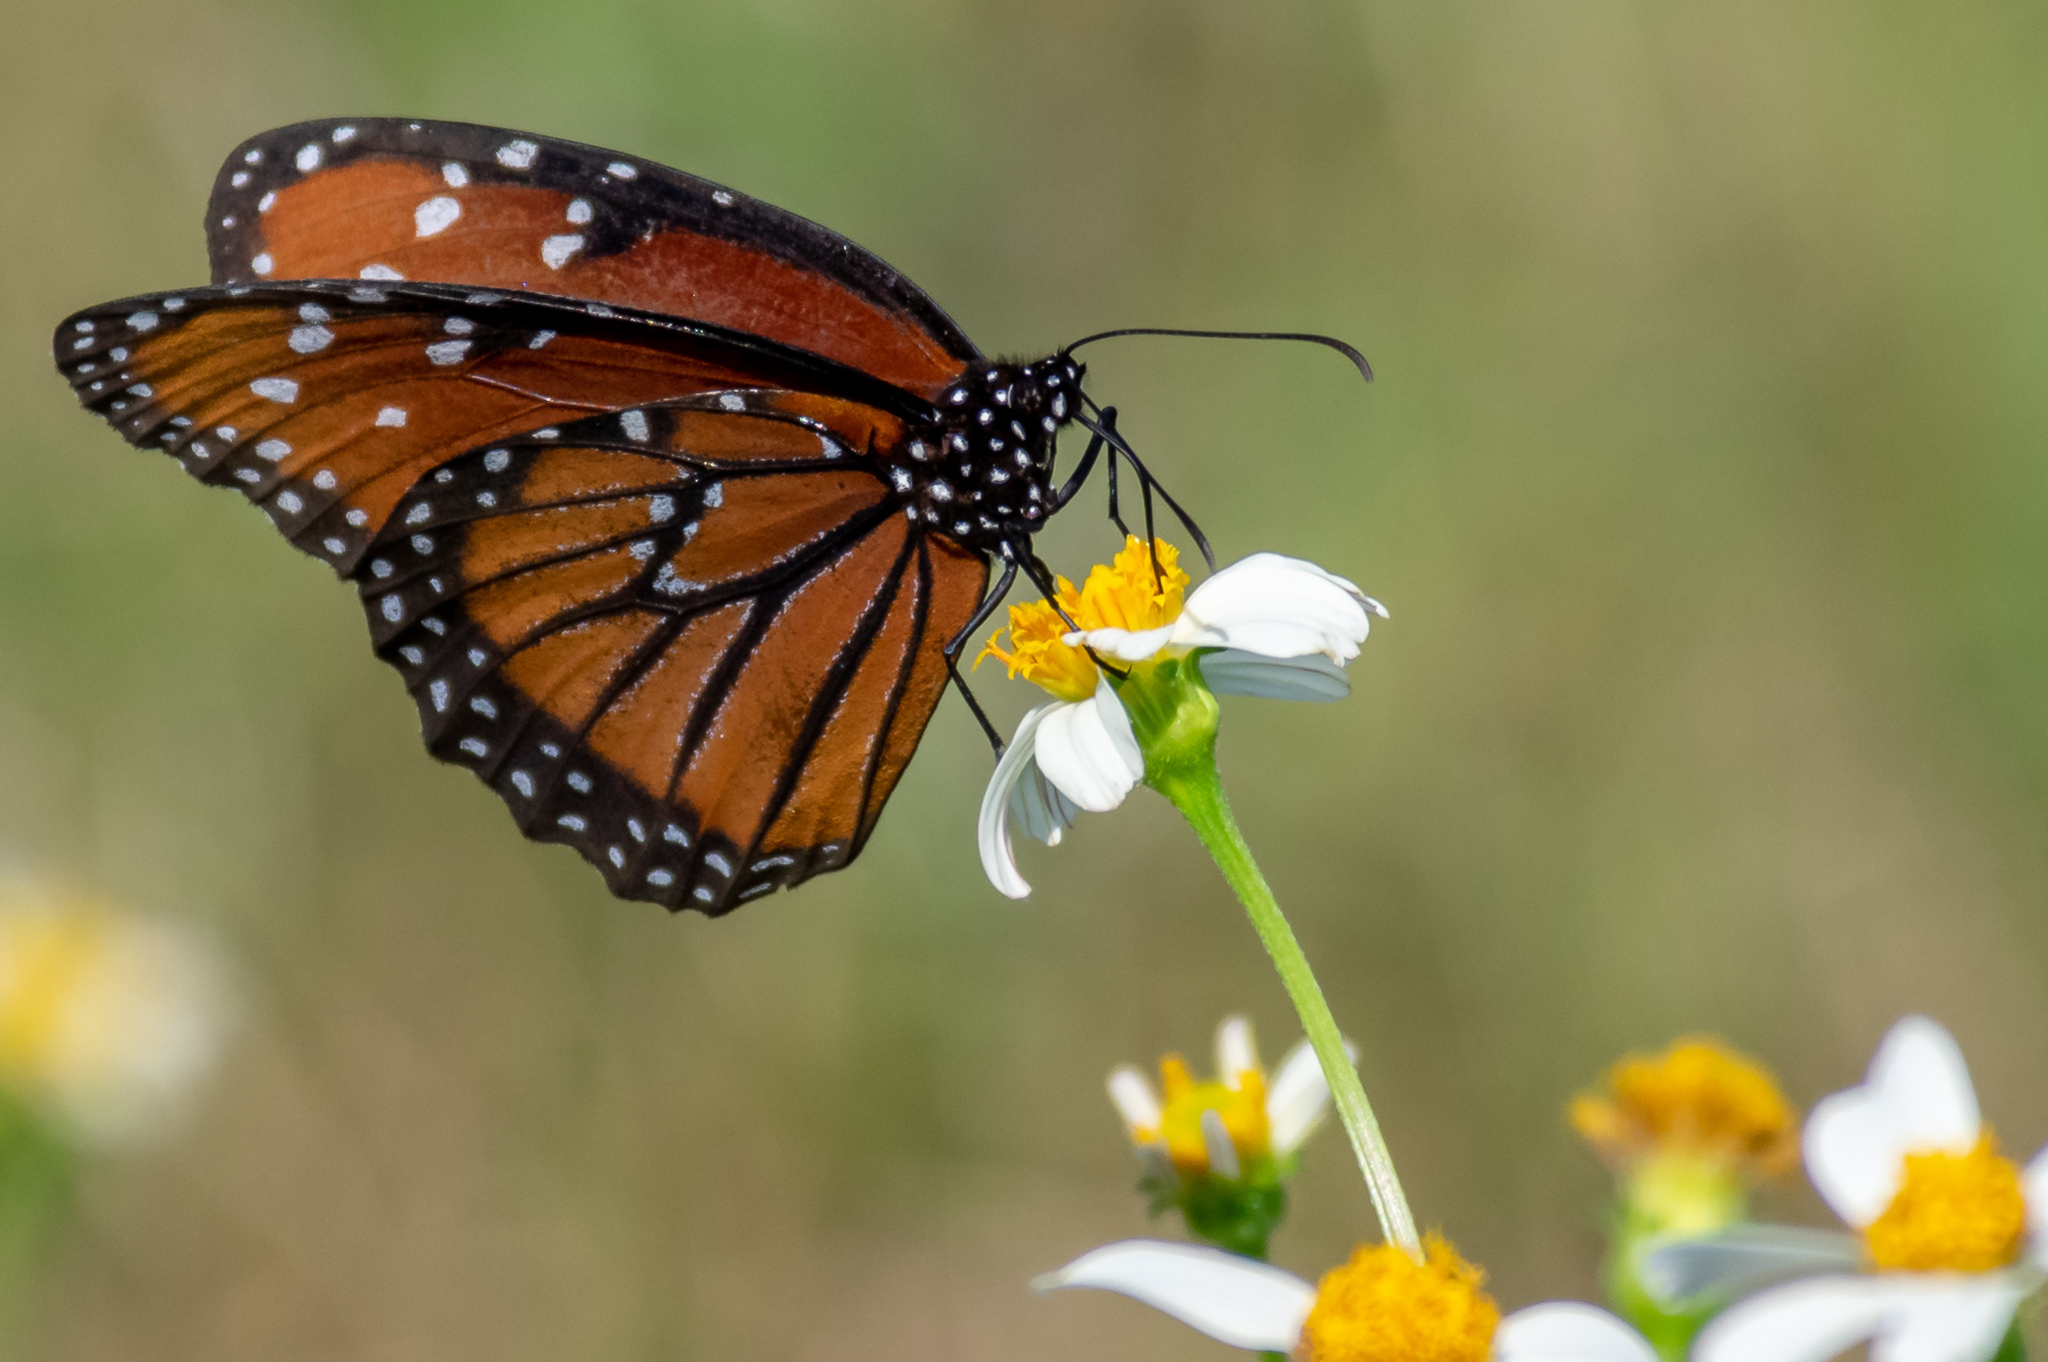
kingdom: Animalia
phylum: Arthropoda
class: Insecta
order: Lepidoptera
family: Nymphalidae
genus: Danaus
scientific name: Danaus gilippus
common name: Queen
